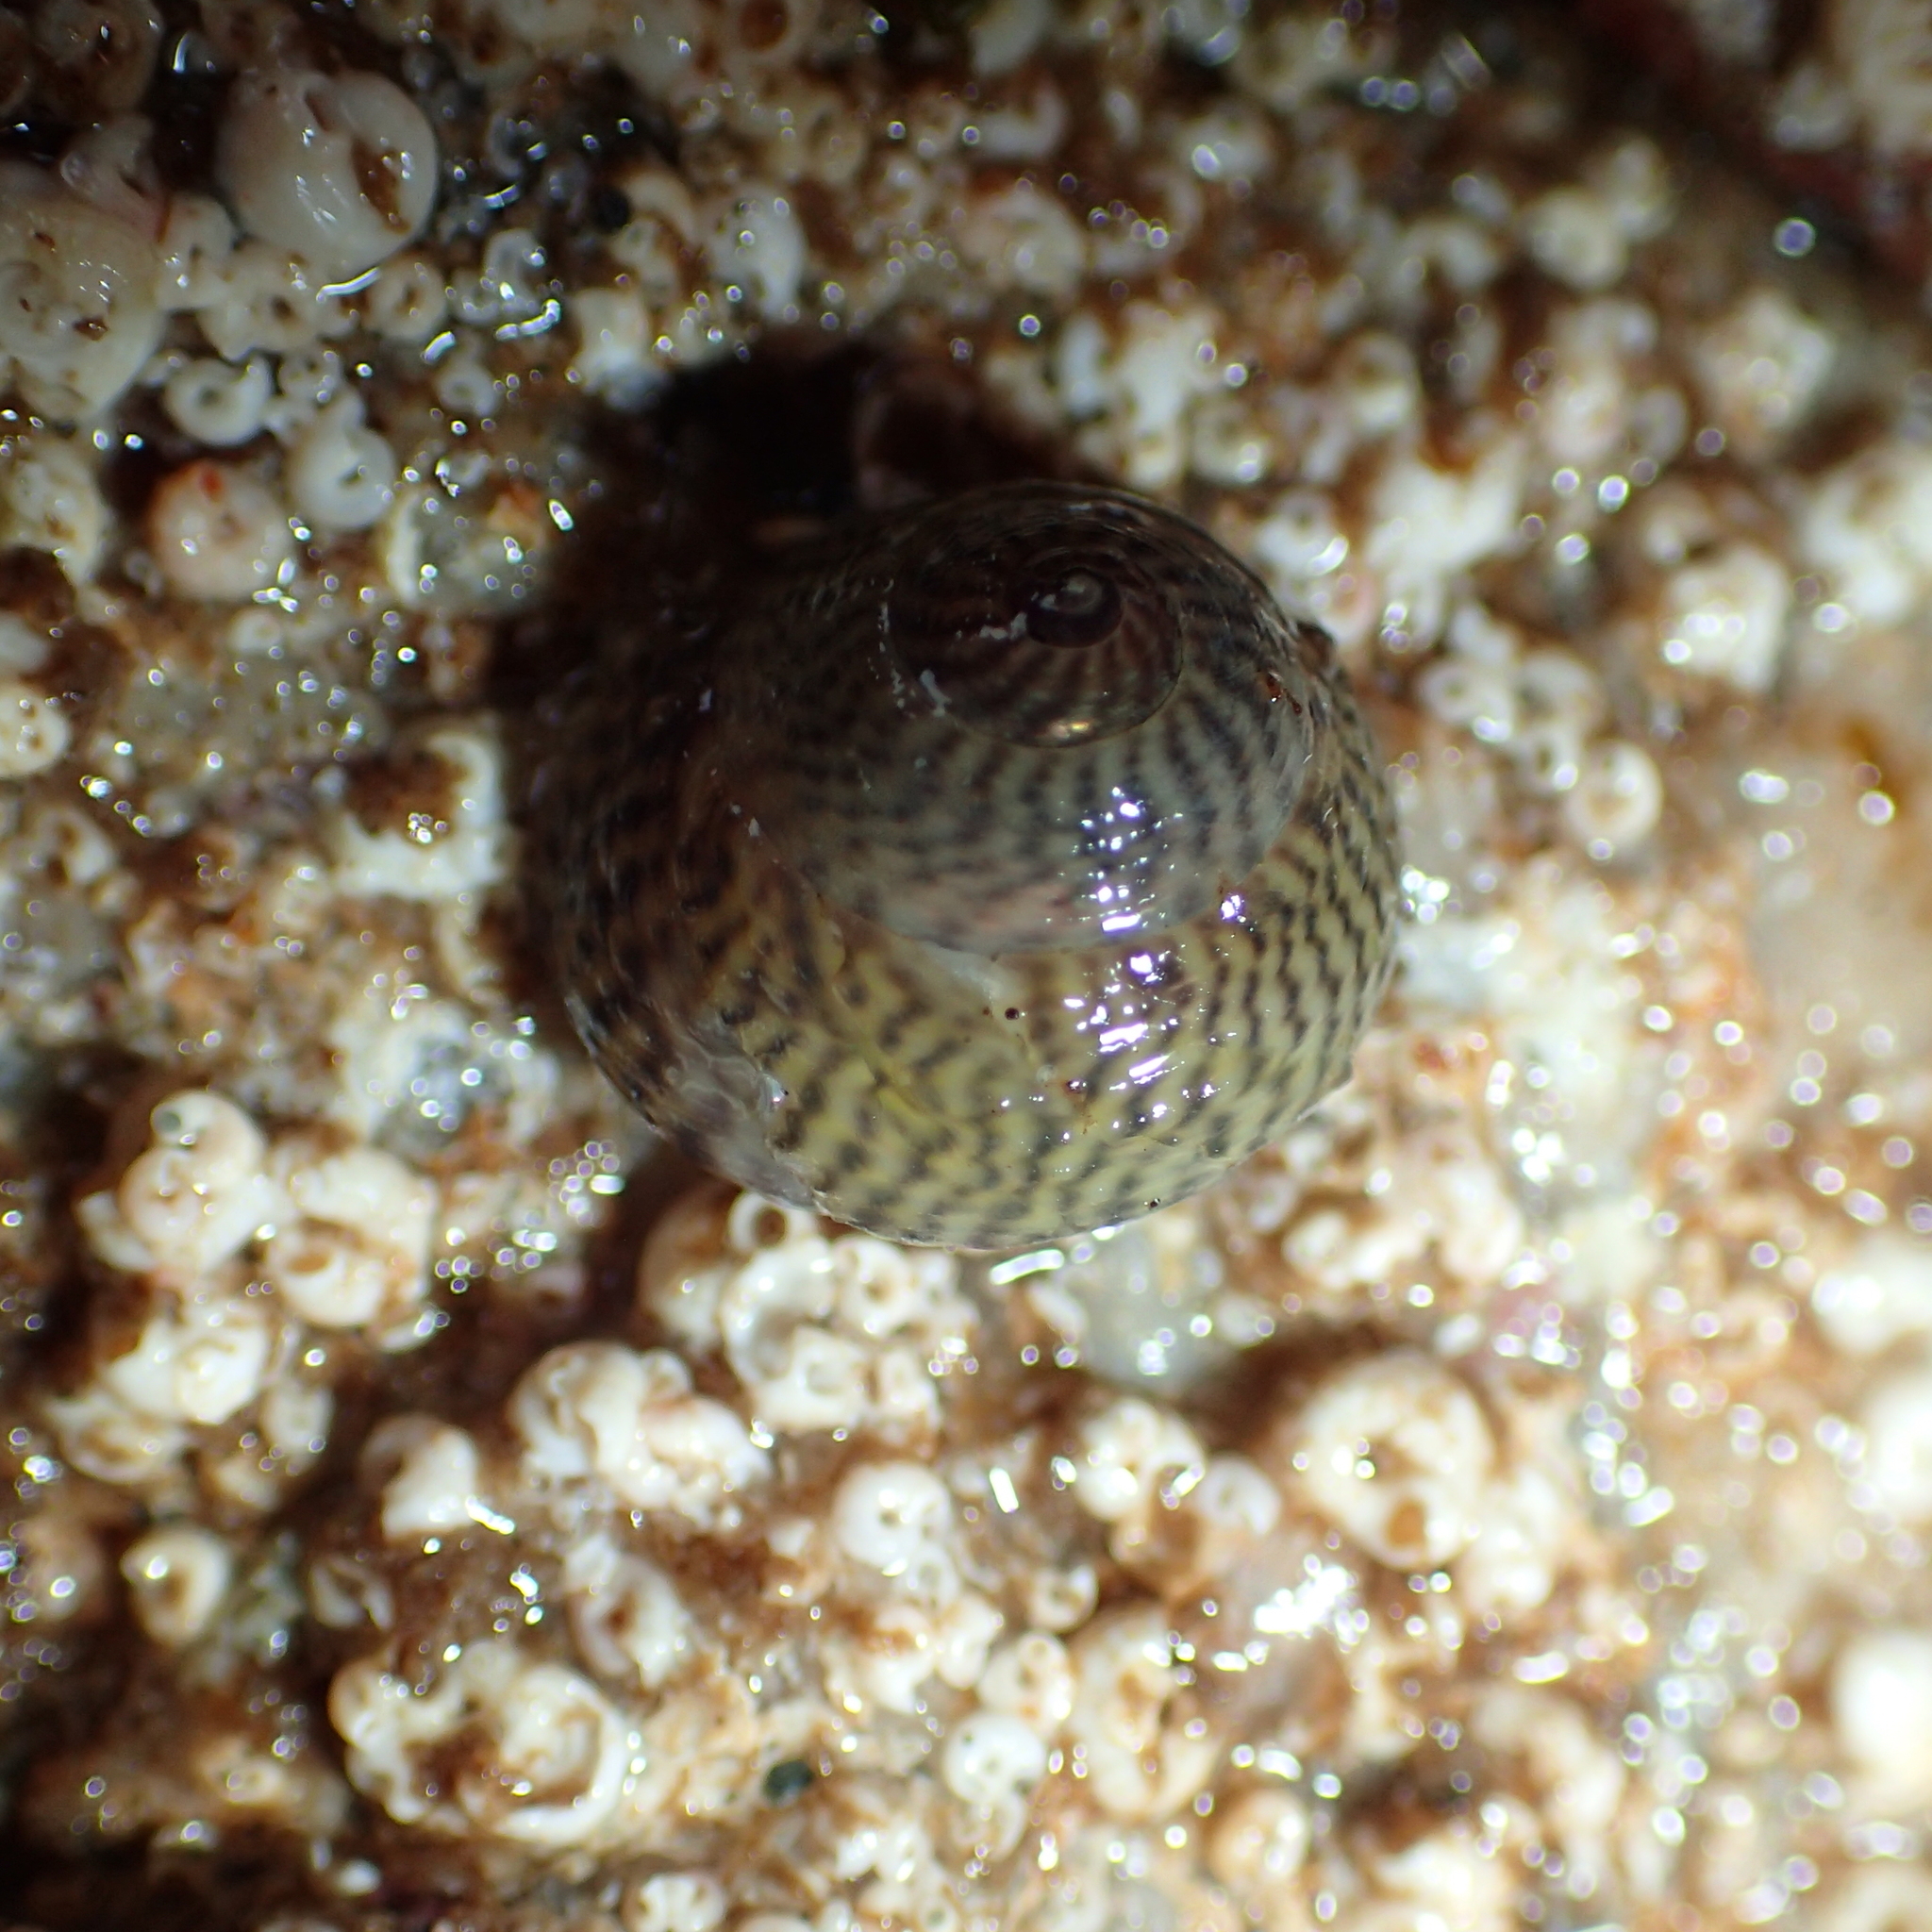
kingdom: Animalia
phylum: Mollusca
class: Gastropoda
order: Trochida
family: Trochidae
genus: Steromphala
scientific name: Steromphala cineraria
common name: Grey top shell
